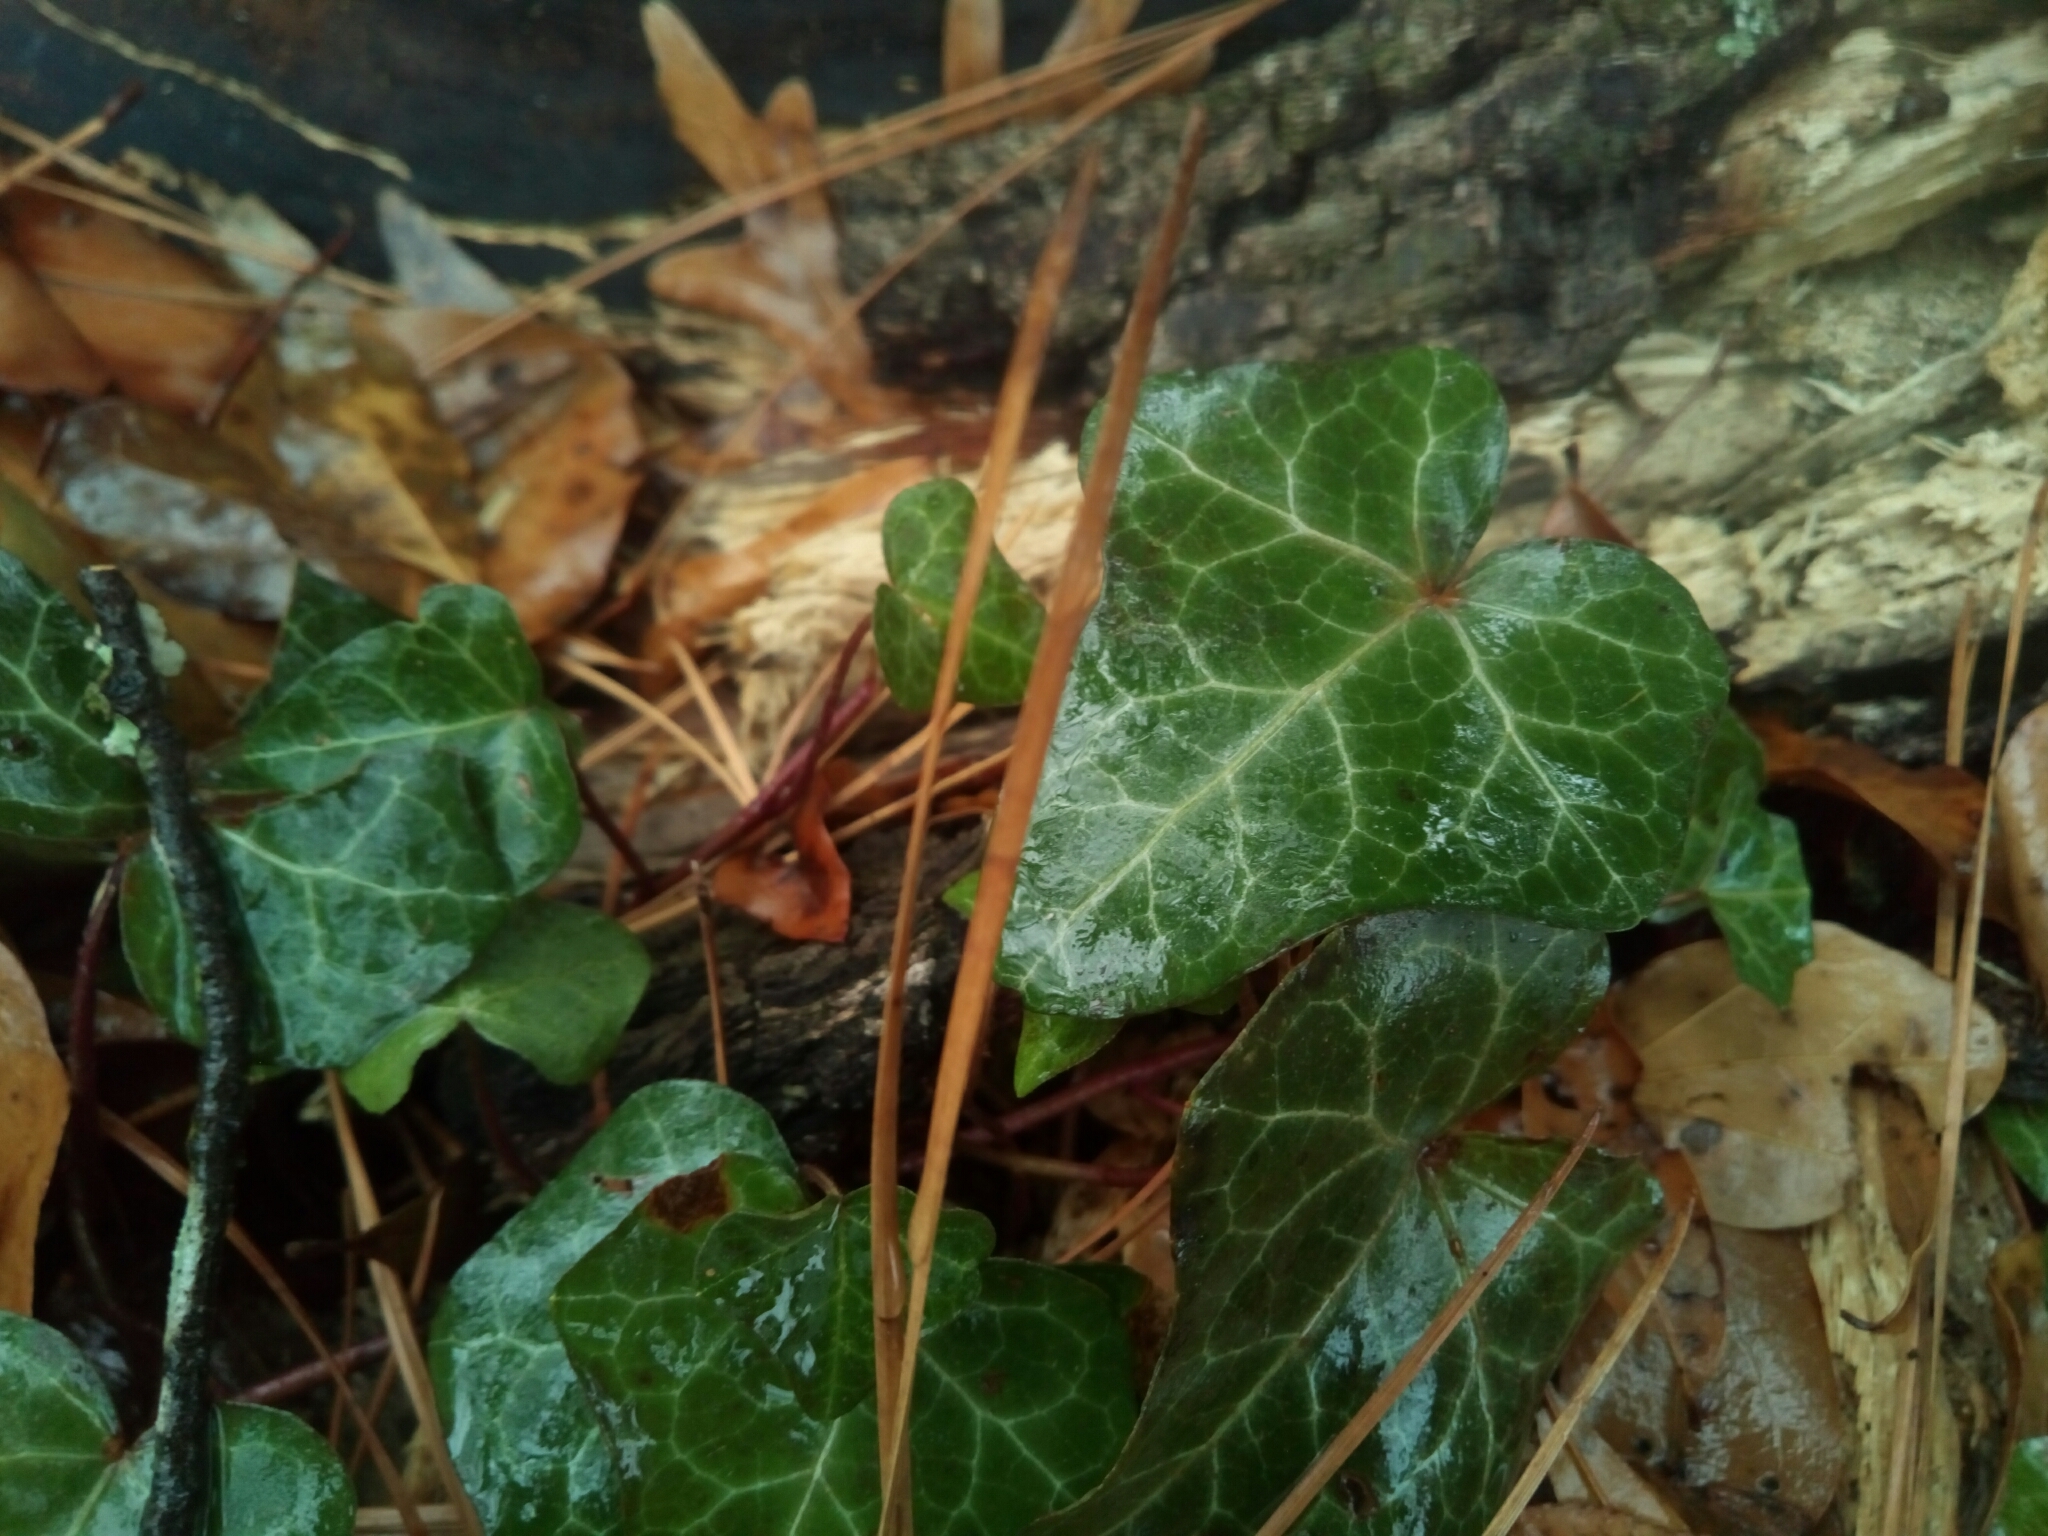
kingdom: Plantae
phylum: Tracheophyta
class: Magnoliopsida
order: Apiales
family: Araliaceae
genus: Hedera
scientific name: Hedera helix
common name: Ivy
